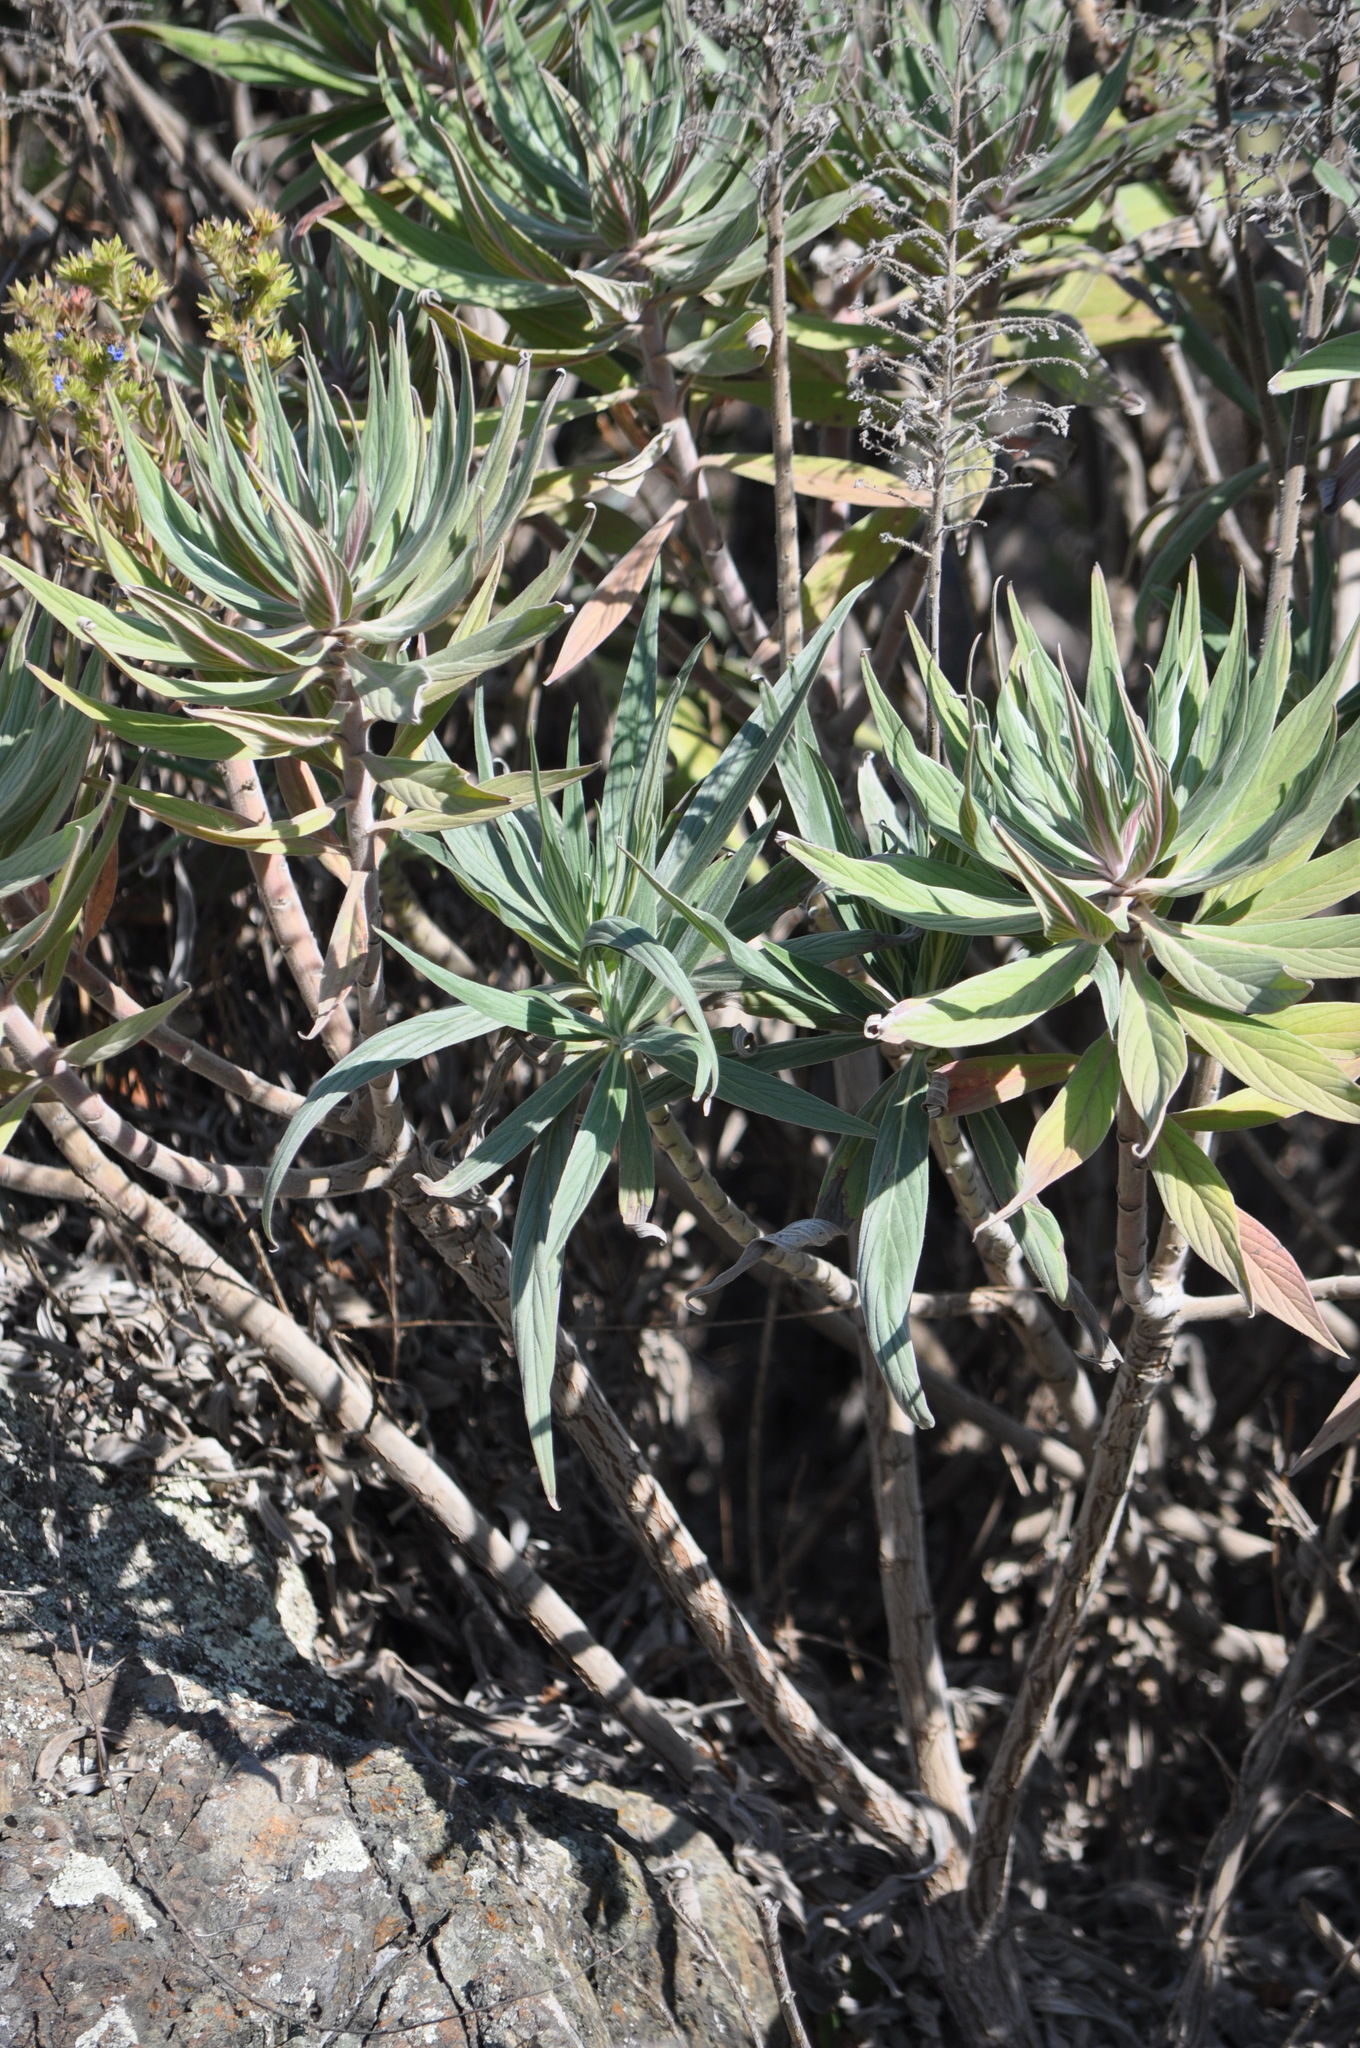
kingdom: Plantae
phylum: Tracheophyta
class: Magnoliopsida
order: Boraginales
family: Boraginaceae
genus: Echium
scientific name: Echium candicans
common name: Pride of madeira
